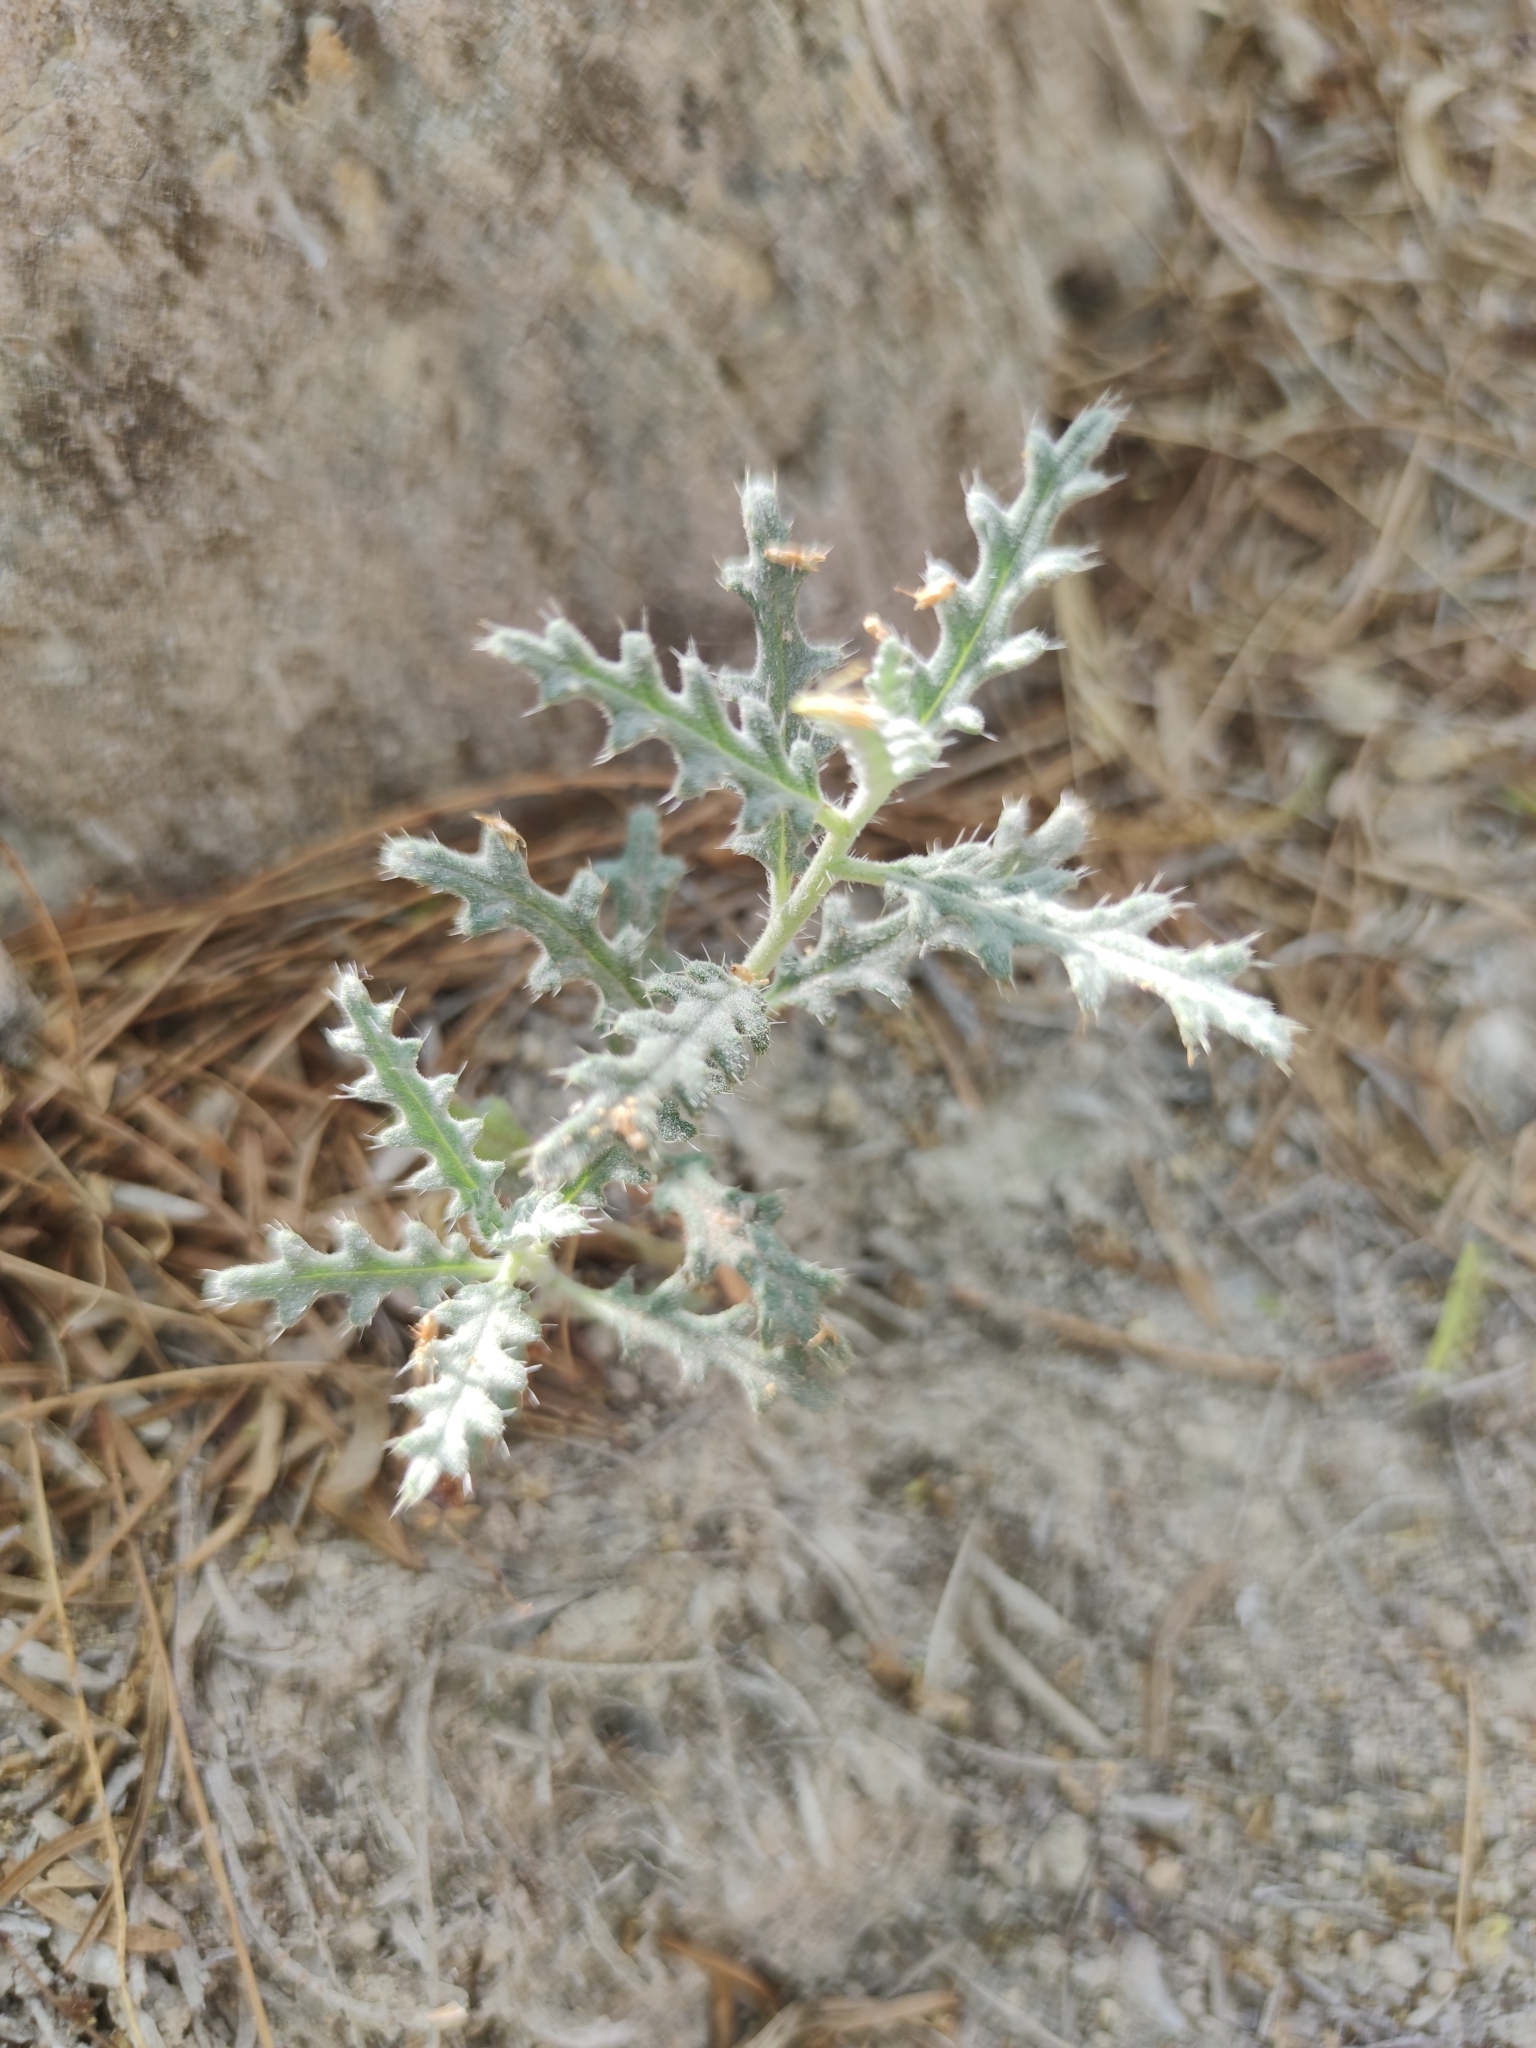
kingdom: Plantae
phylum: Tracheophyta
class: Magnoliopsida
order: Cornales
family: Loasaceae
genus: Cevallia
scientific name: Cevallia sinuata
